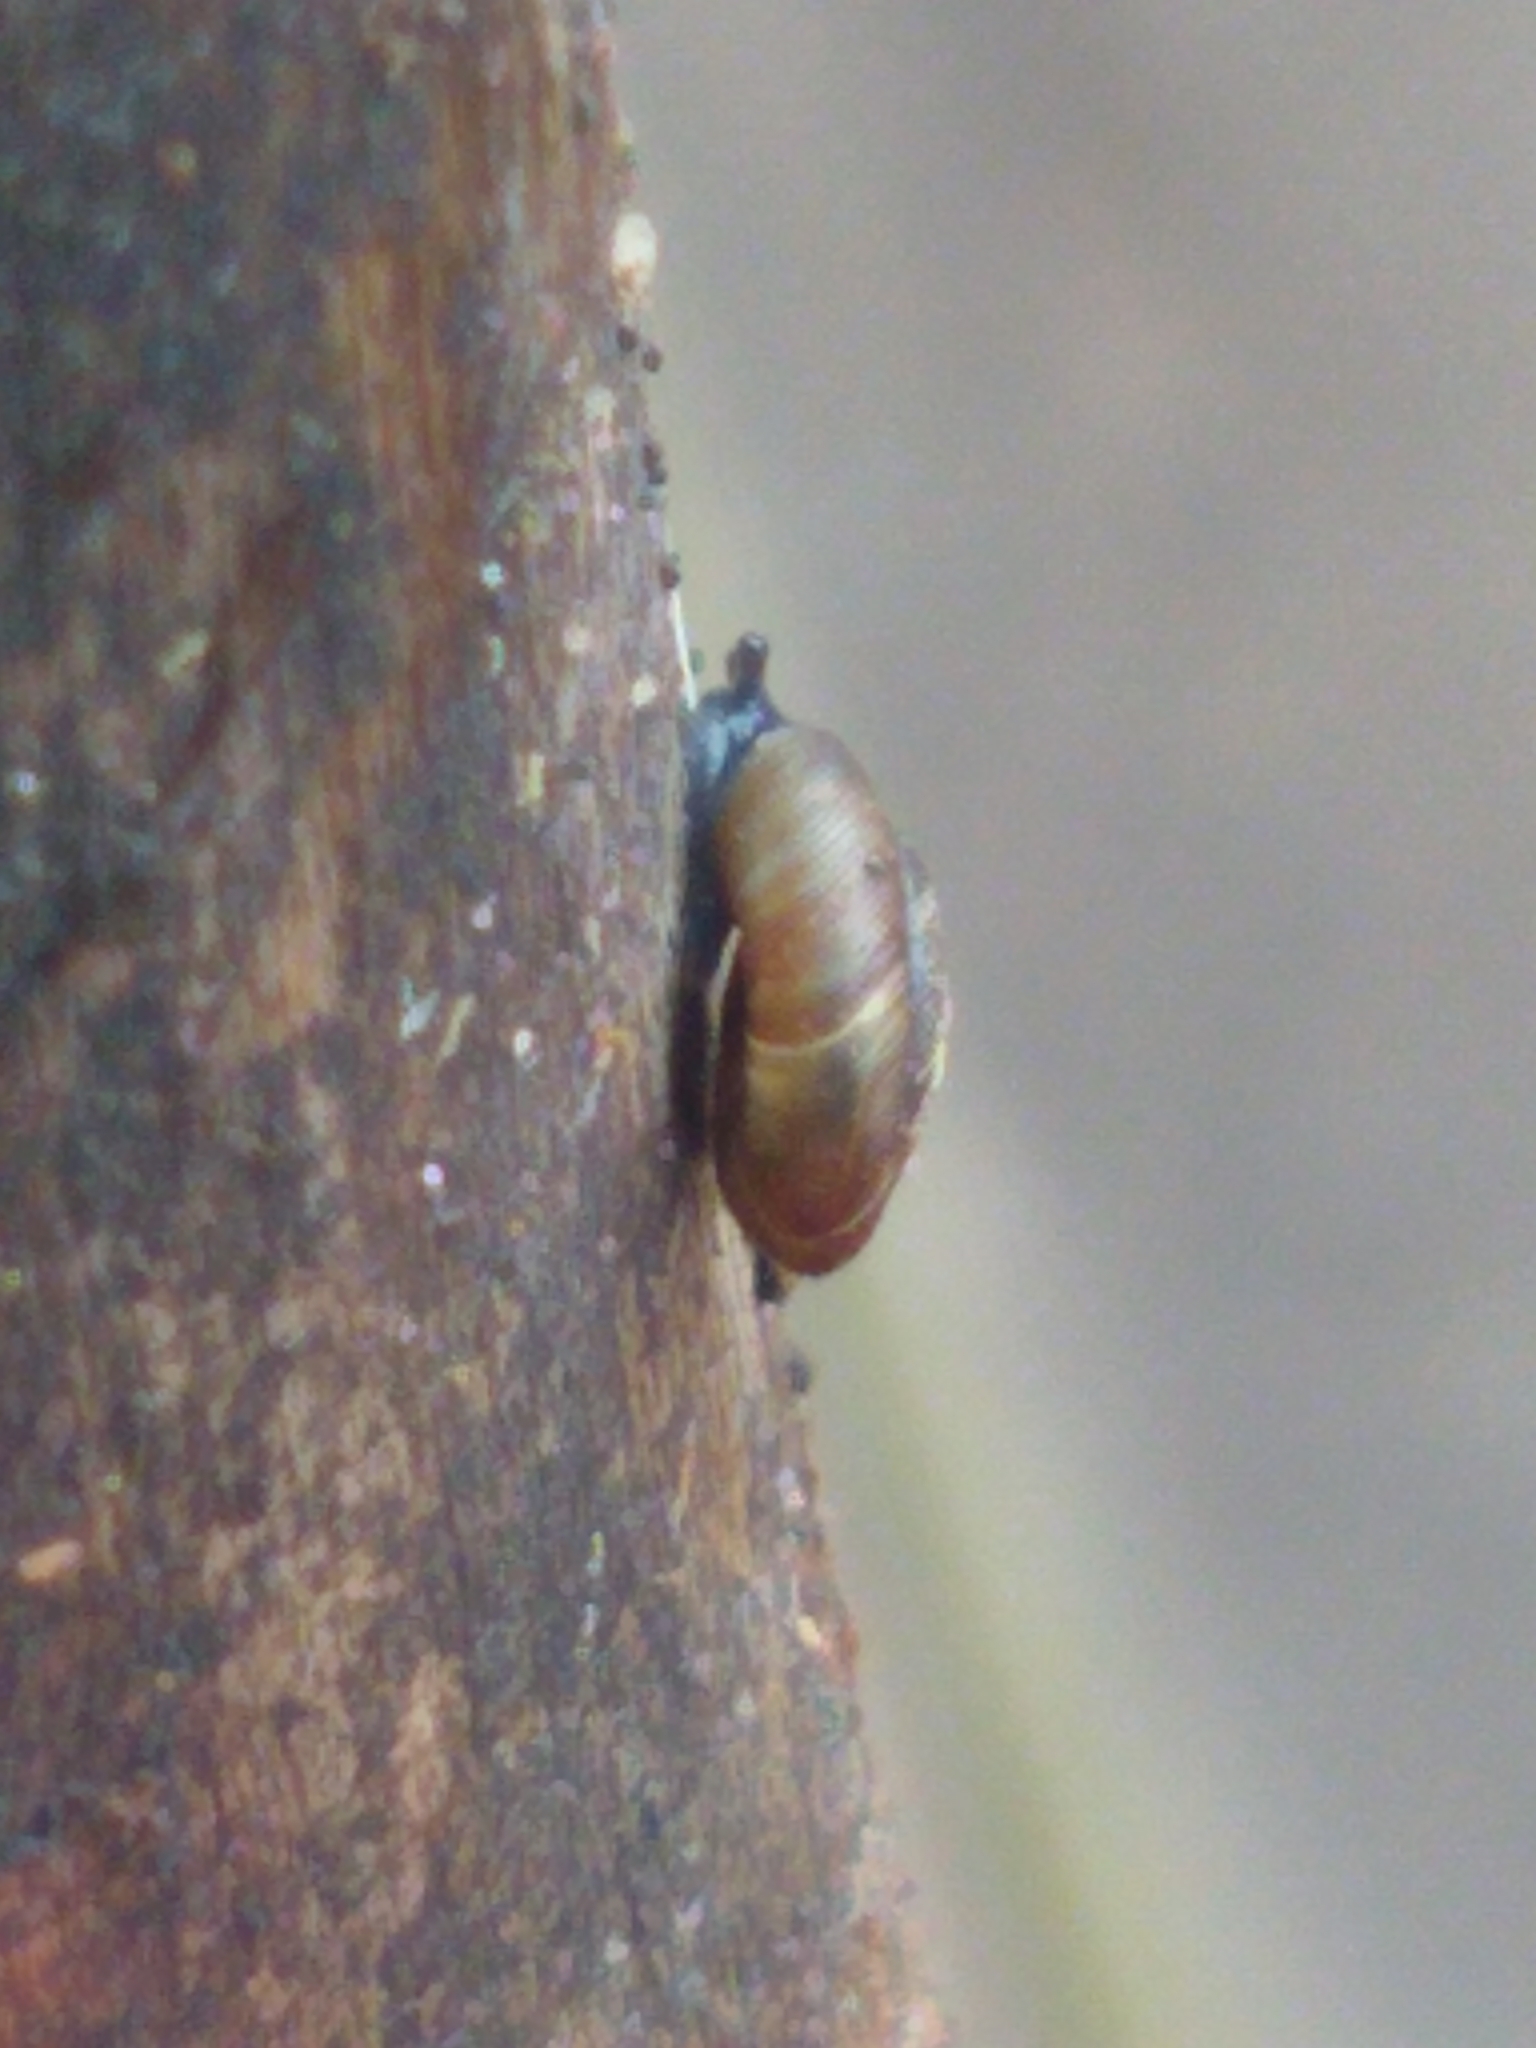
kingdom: Animalia
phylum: Mollusca
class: Gastropoda
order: Stylommatophora
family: Discidae
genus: Discus
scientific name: Discus rotundatus
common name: Rounded snail
